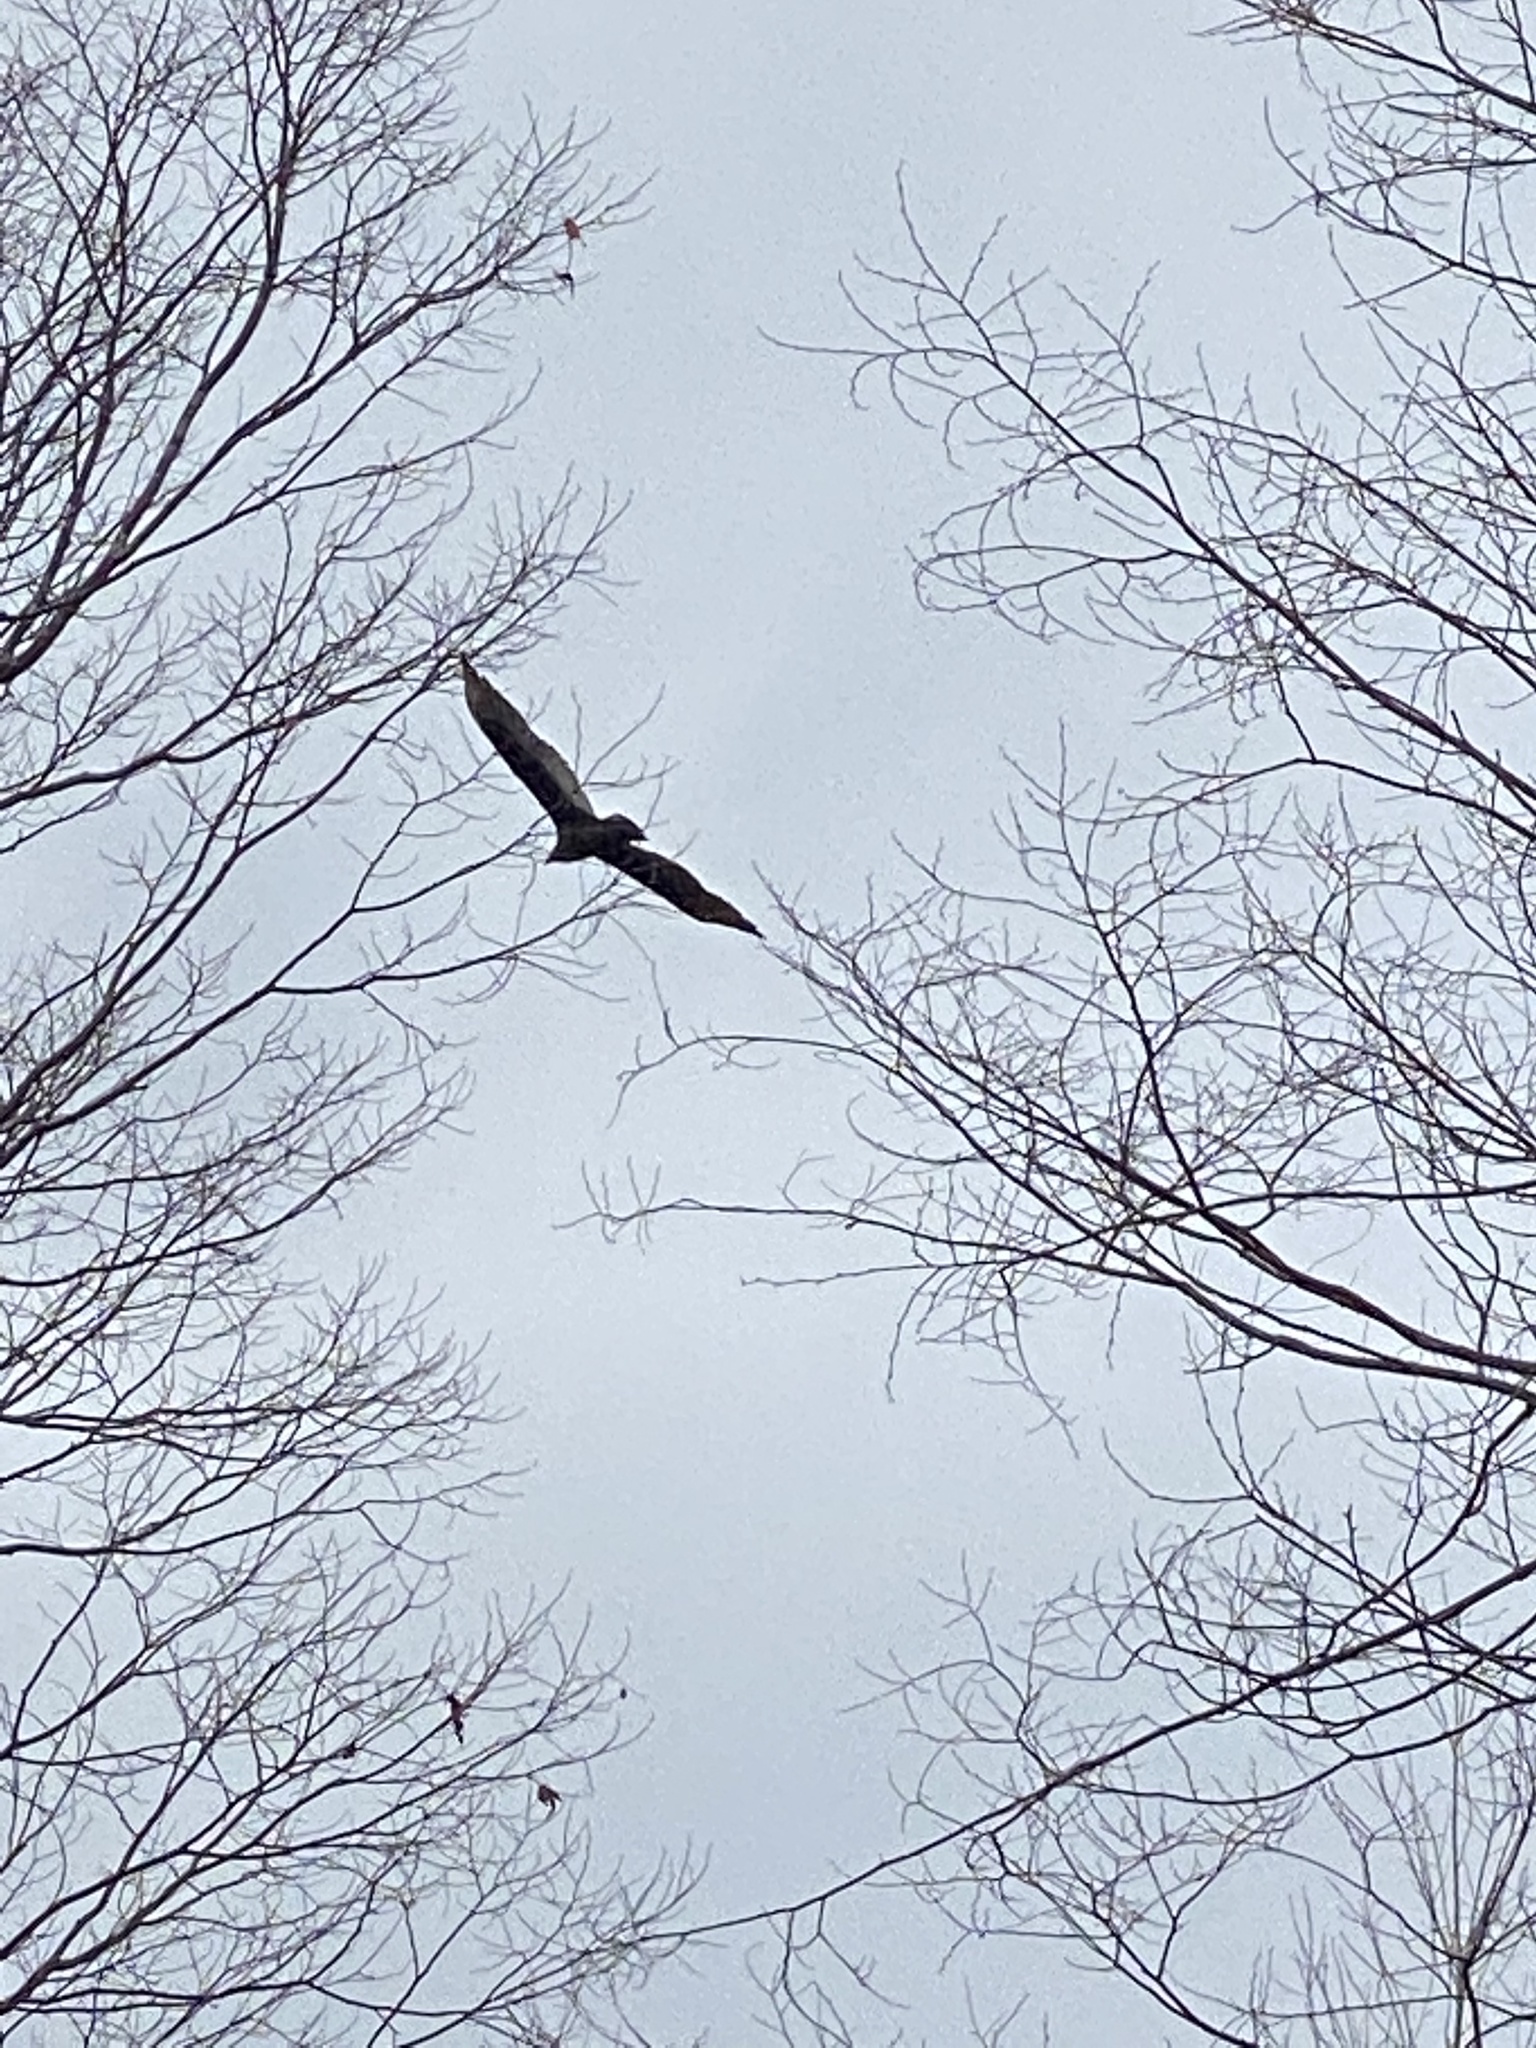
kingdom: Animalia
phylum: Chordata
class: Aves
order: Accipitriformes
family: Cathartidae
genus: Cathartes
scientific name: Cathartes aura
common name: Turkey vulture
